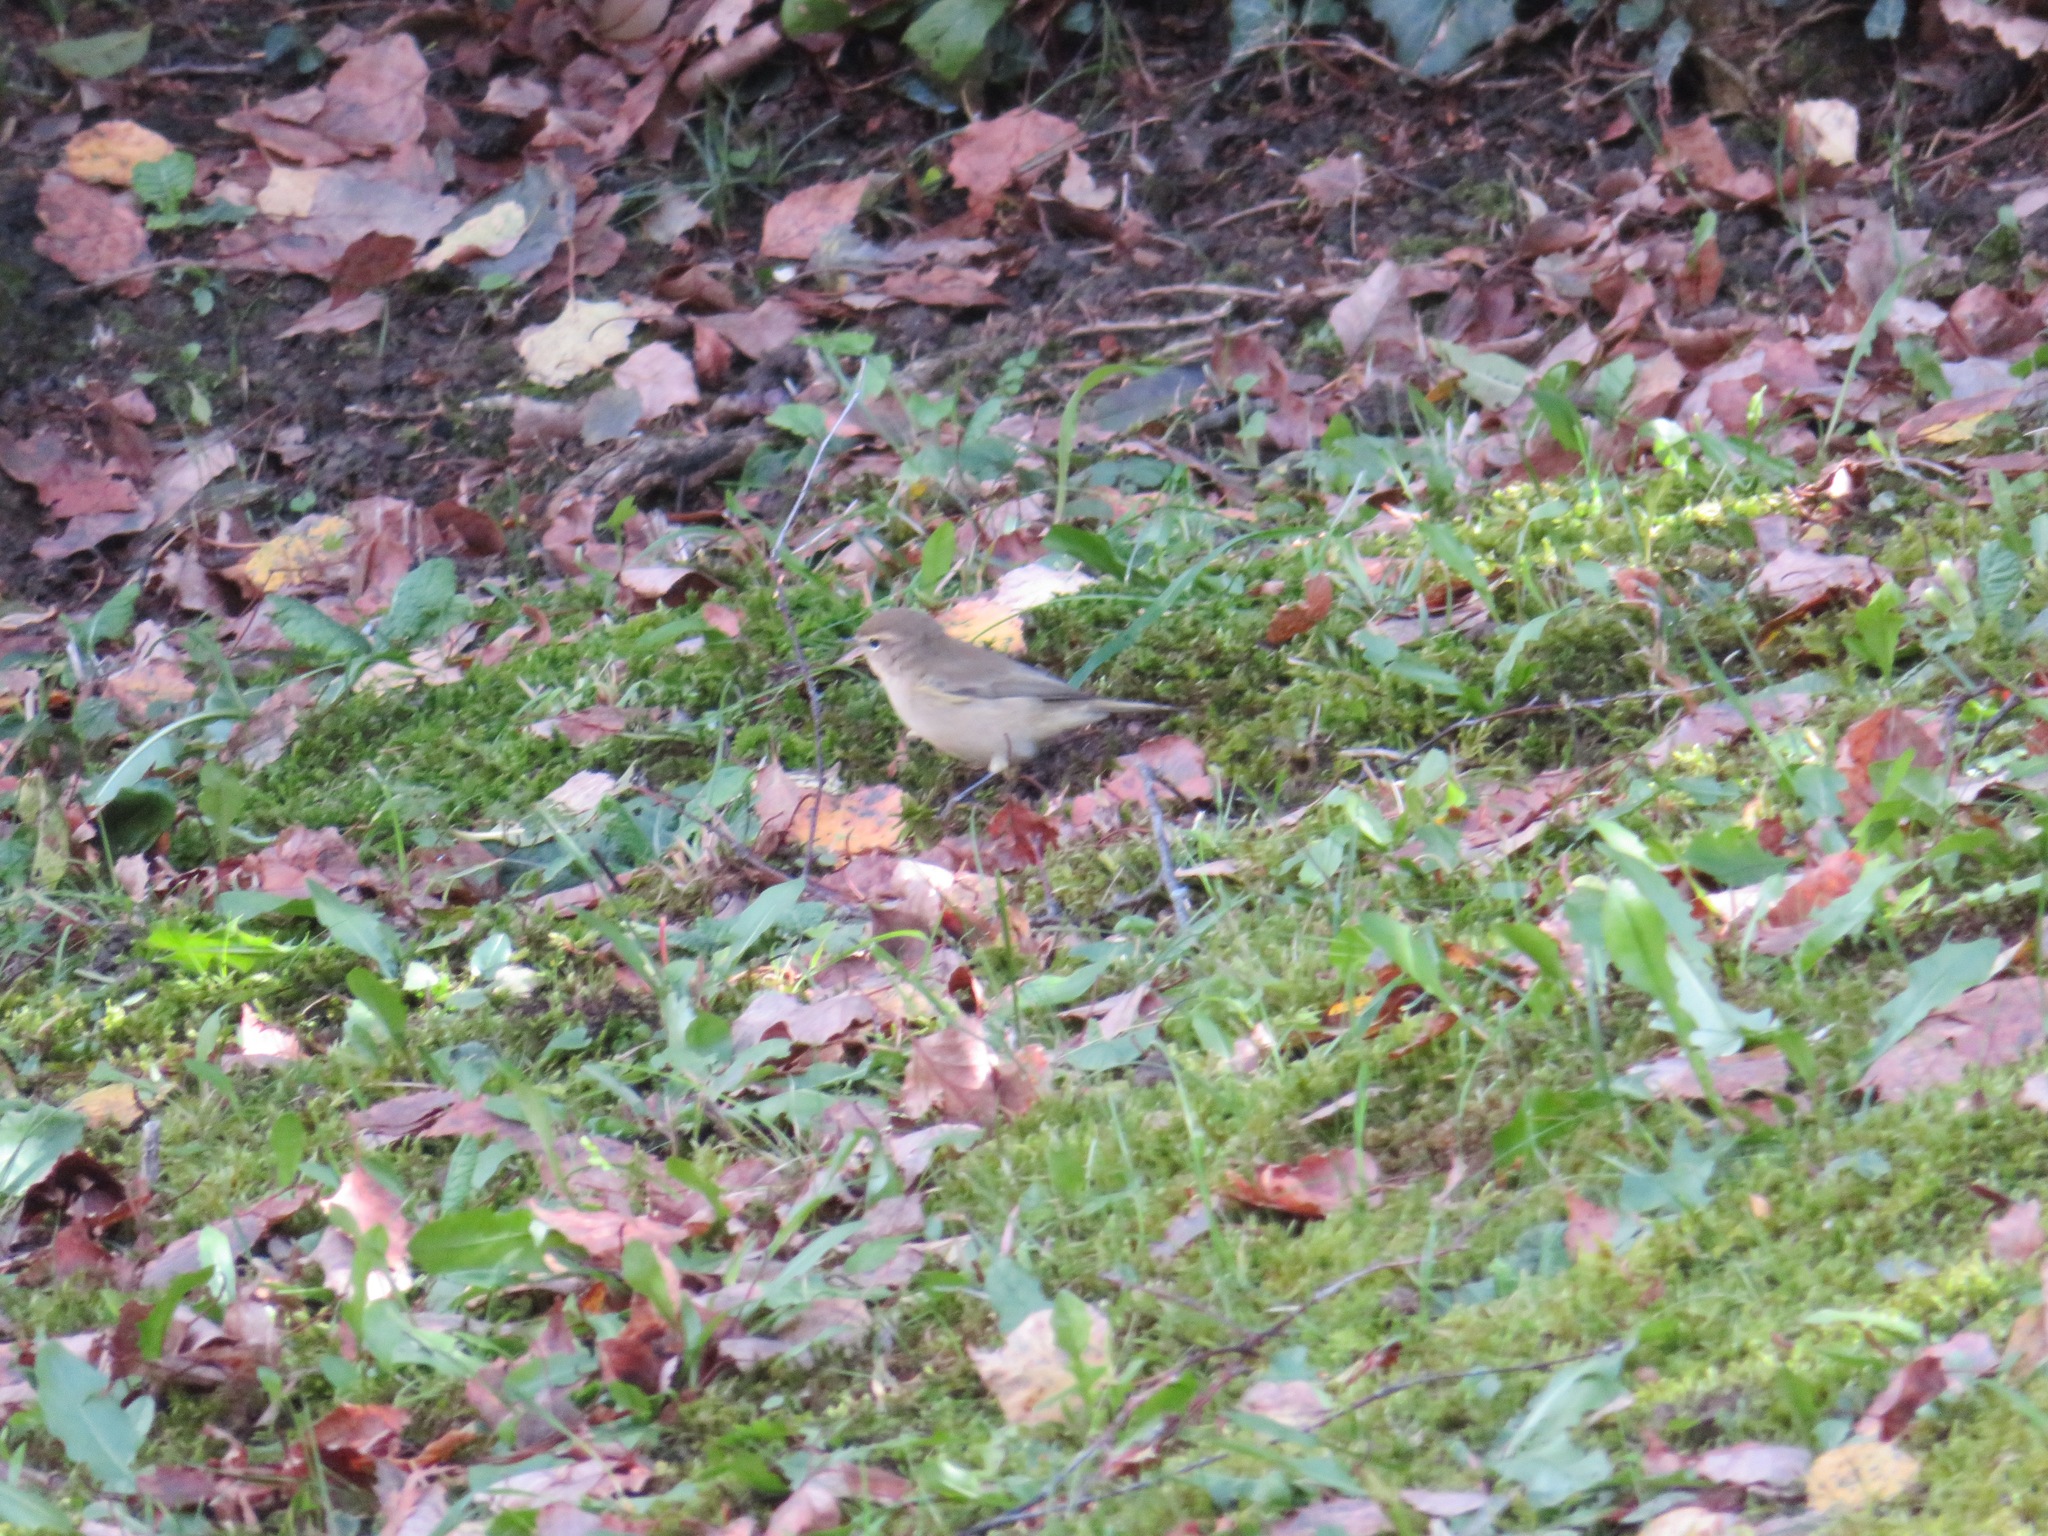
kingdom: Animalia
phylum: Chordata
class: Aves
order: Passeriformes
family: Phylloscopidae
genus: Phylloscopus
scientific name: Phylloscopus collybita
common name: Common chiffchaff
